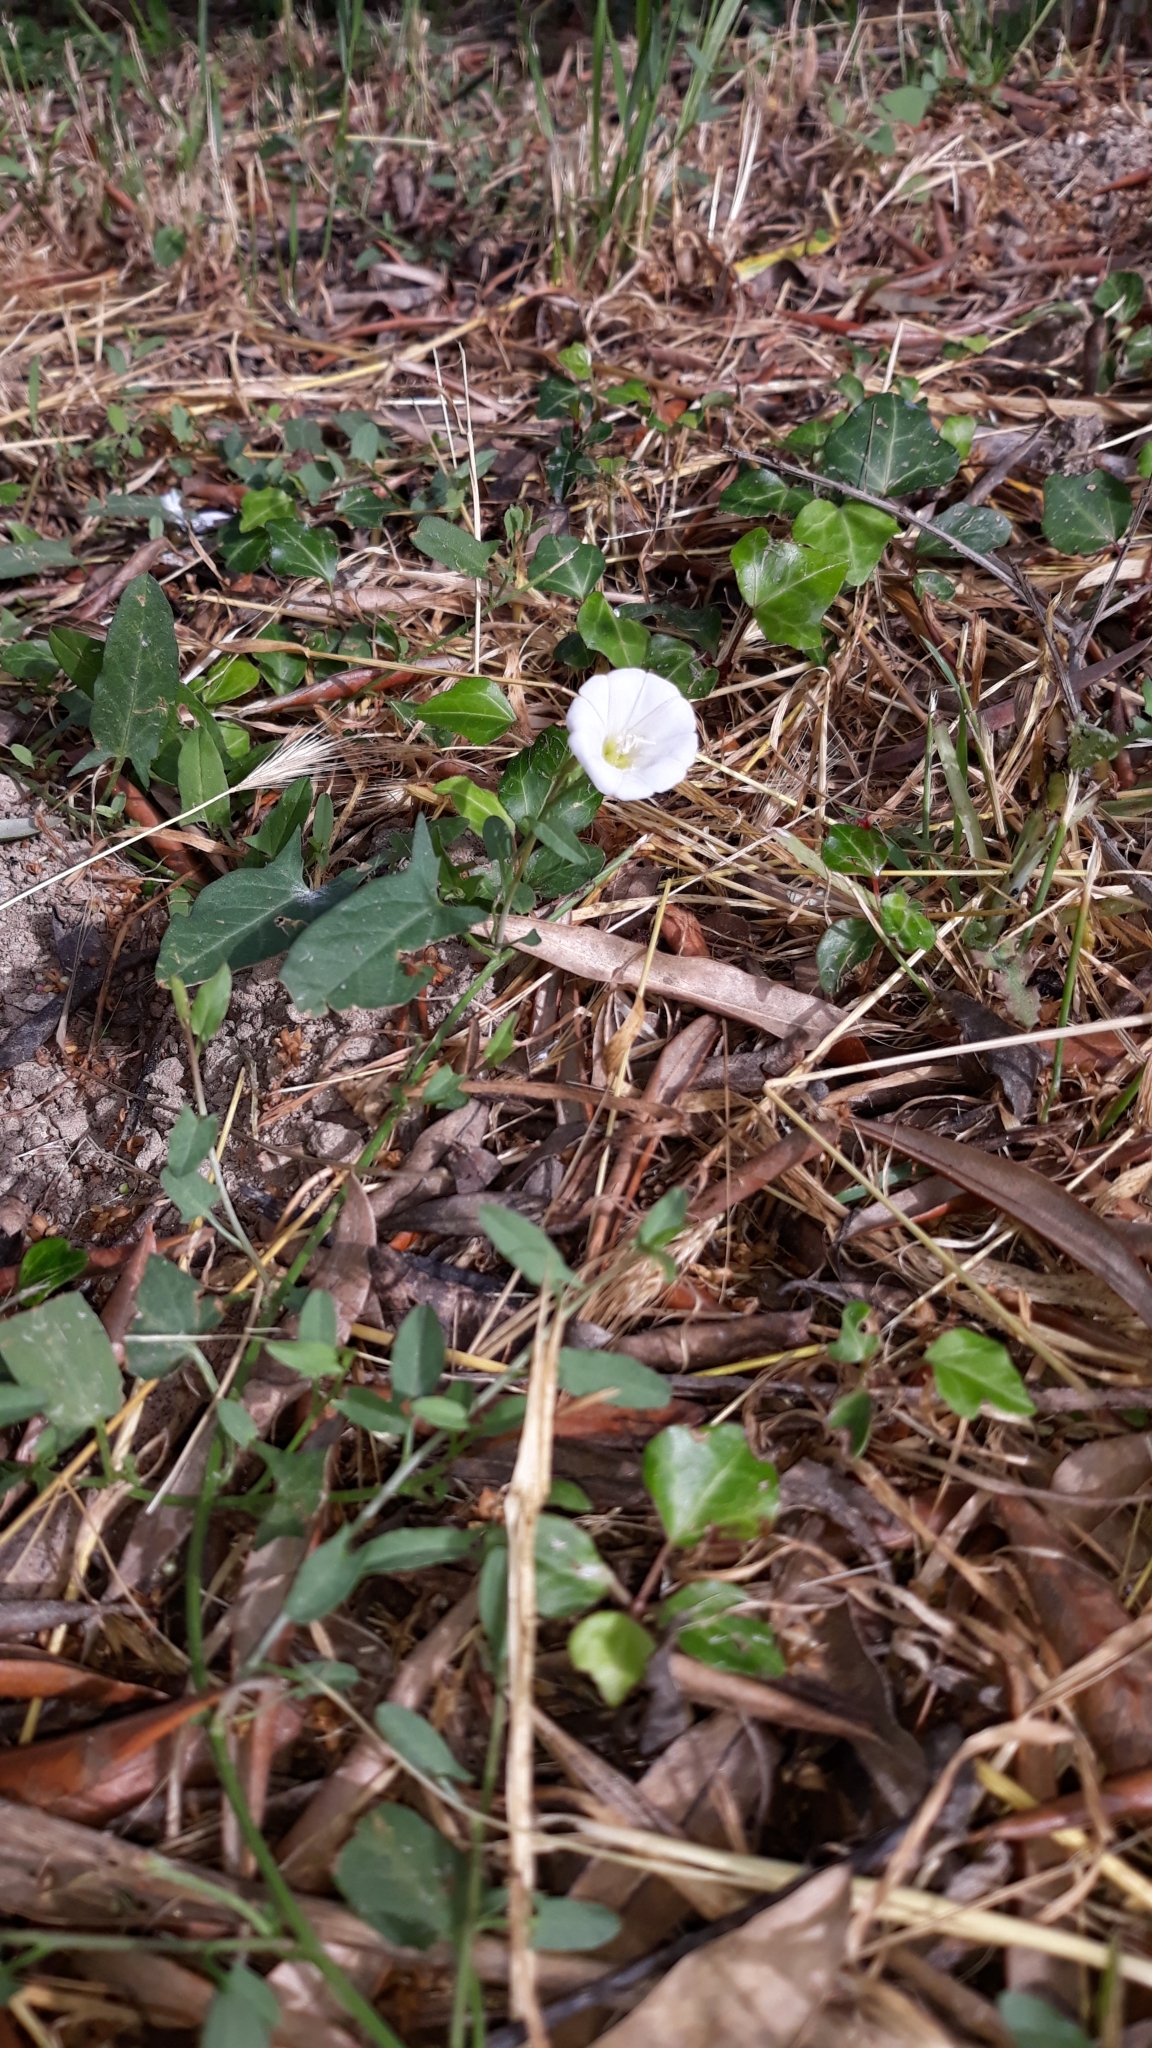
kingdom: Plantae
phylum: Tracheophyta
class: Magnoliopsida
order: Solanales
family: Convolvulaceae
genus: Convolvulus
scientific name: Convolvulus arvensis
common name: Field bindweed
